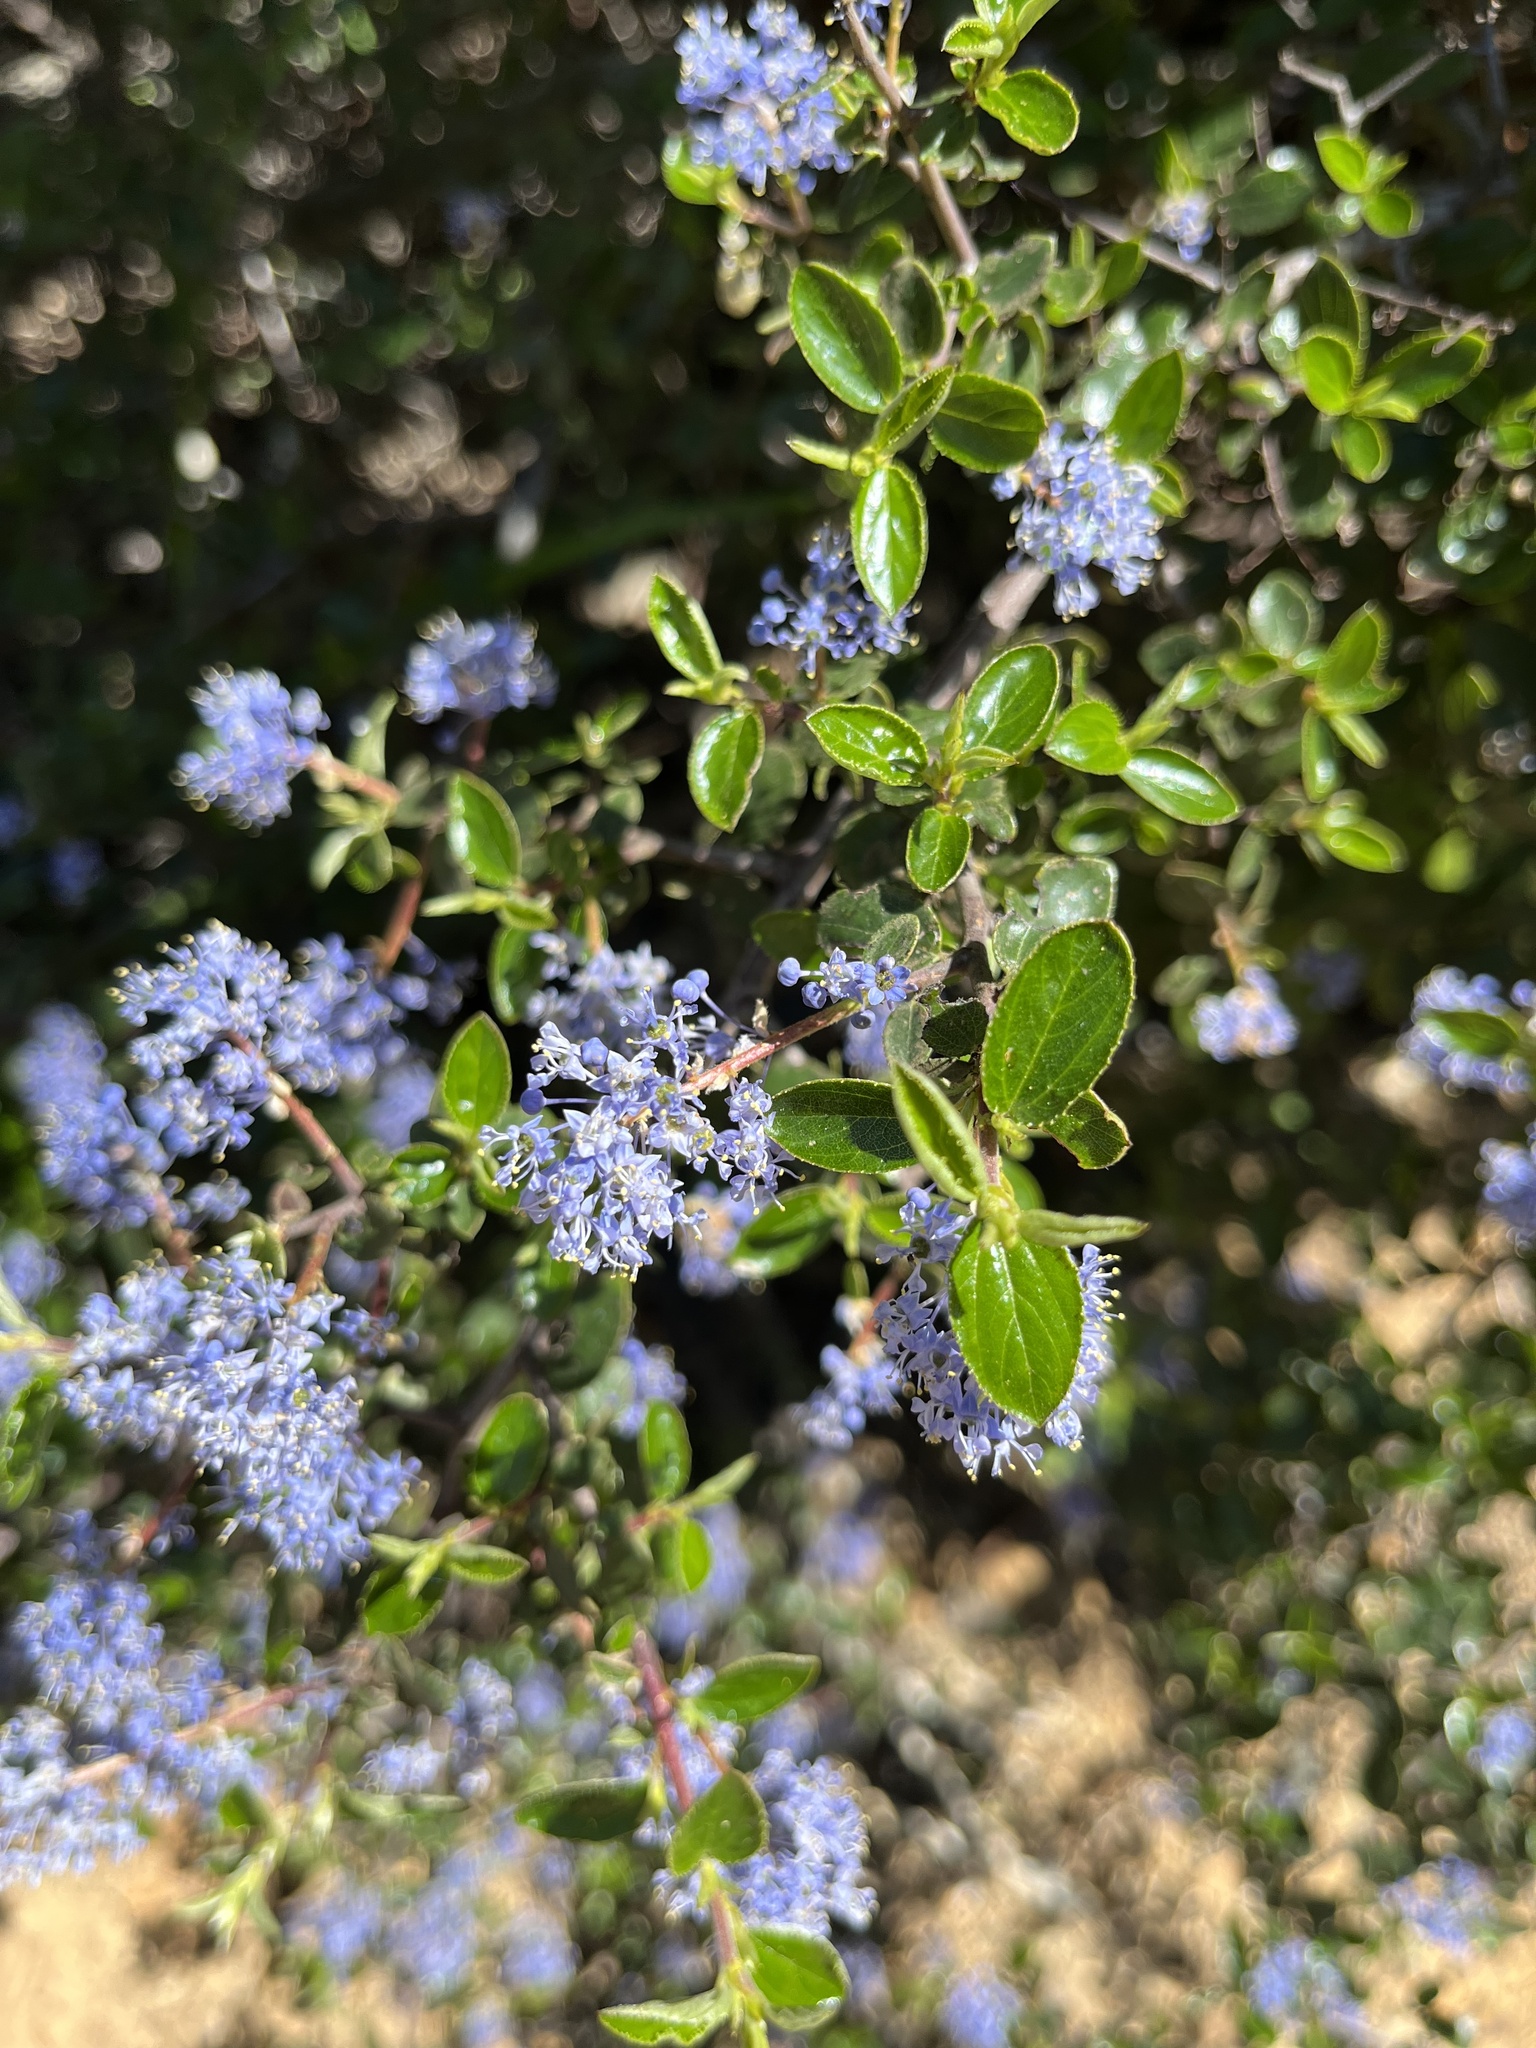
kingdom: Plantae
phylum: Tracheophyta
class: Magnoliopsida
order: Rosales
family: Rhamnaceae
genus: Ceanothus
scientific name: Ceanothus oliganthus
